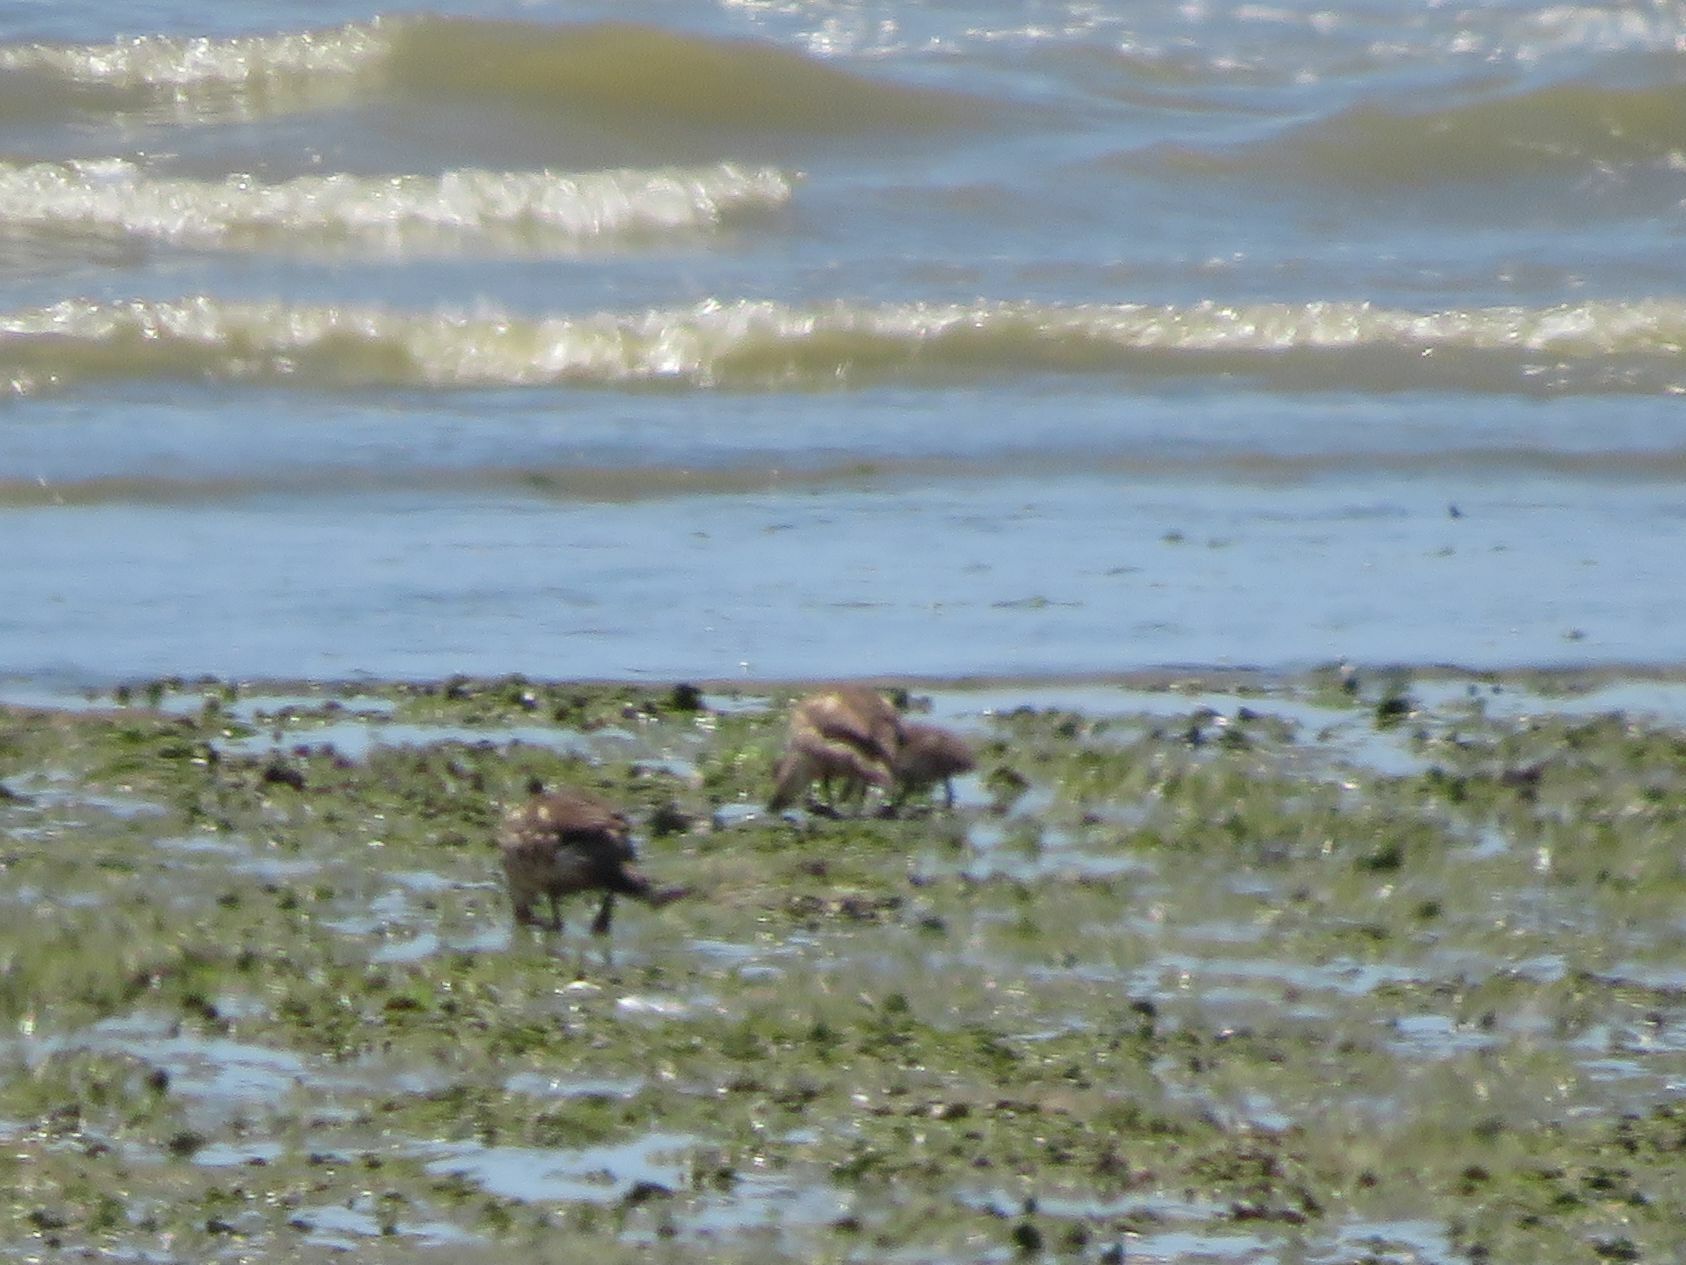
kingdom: Animalia
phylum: Chordata
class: Aves
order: Anseriformes
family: Anatidae
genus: Lophonetta
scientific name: Lophonetta specularioides
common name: Crested duck
